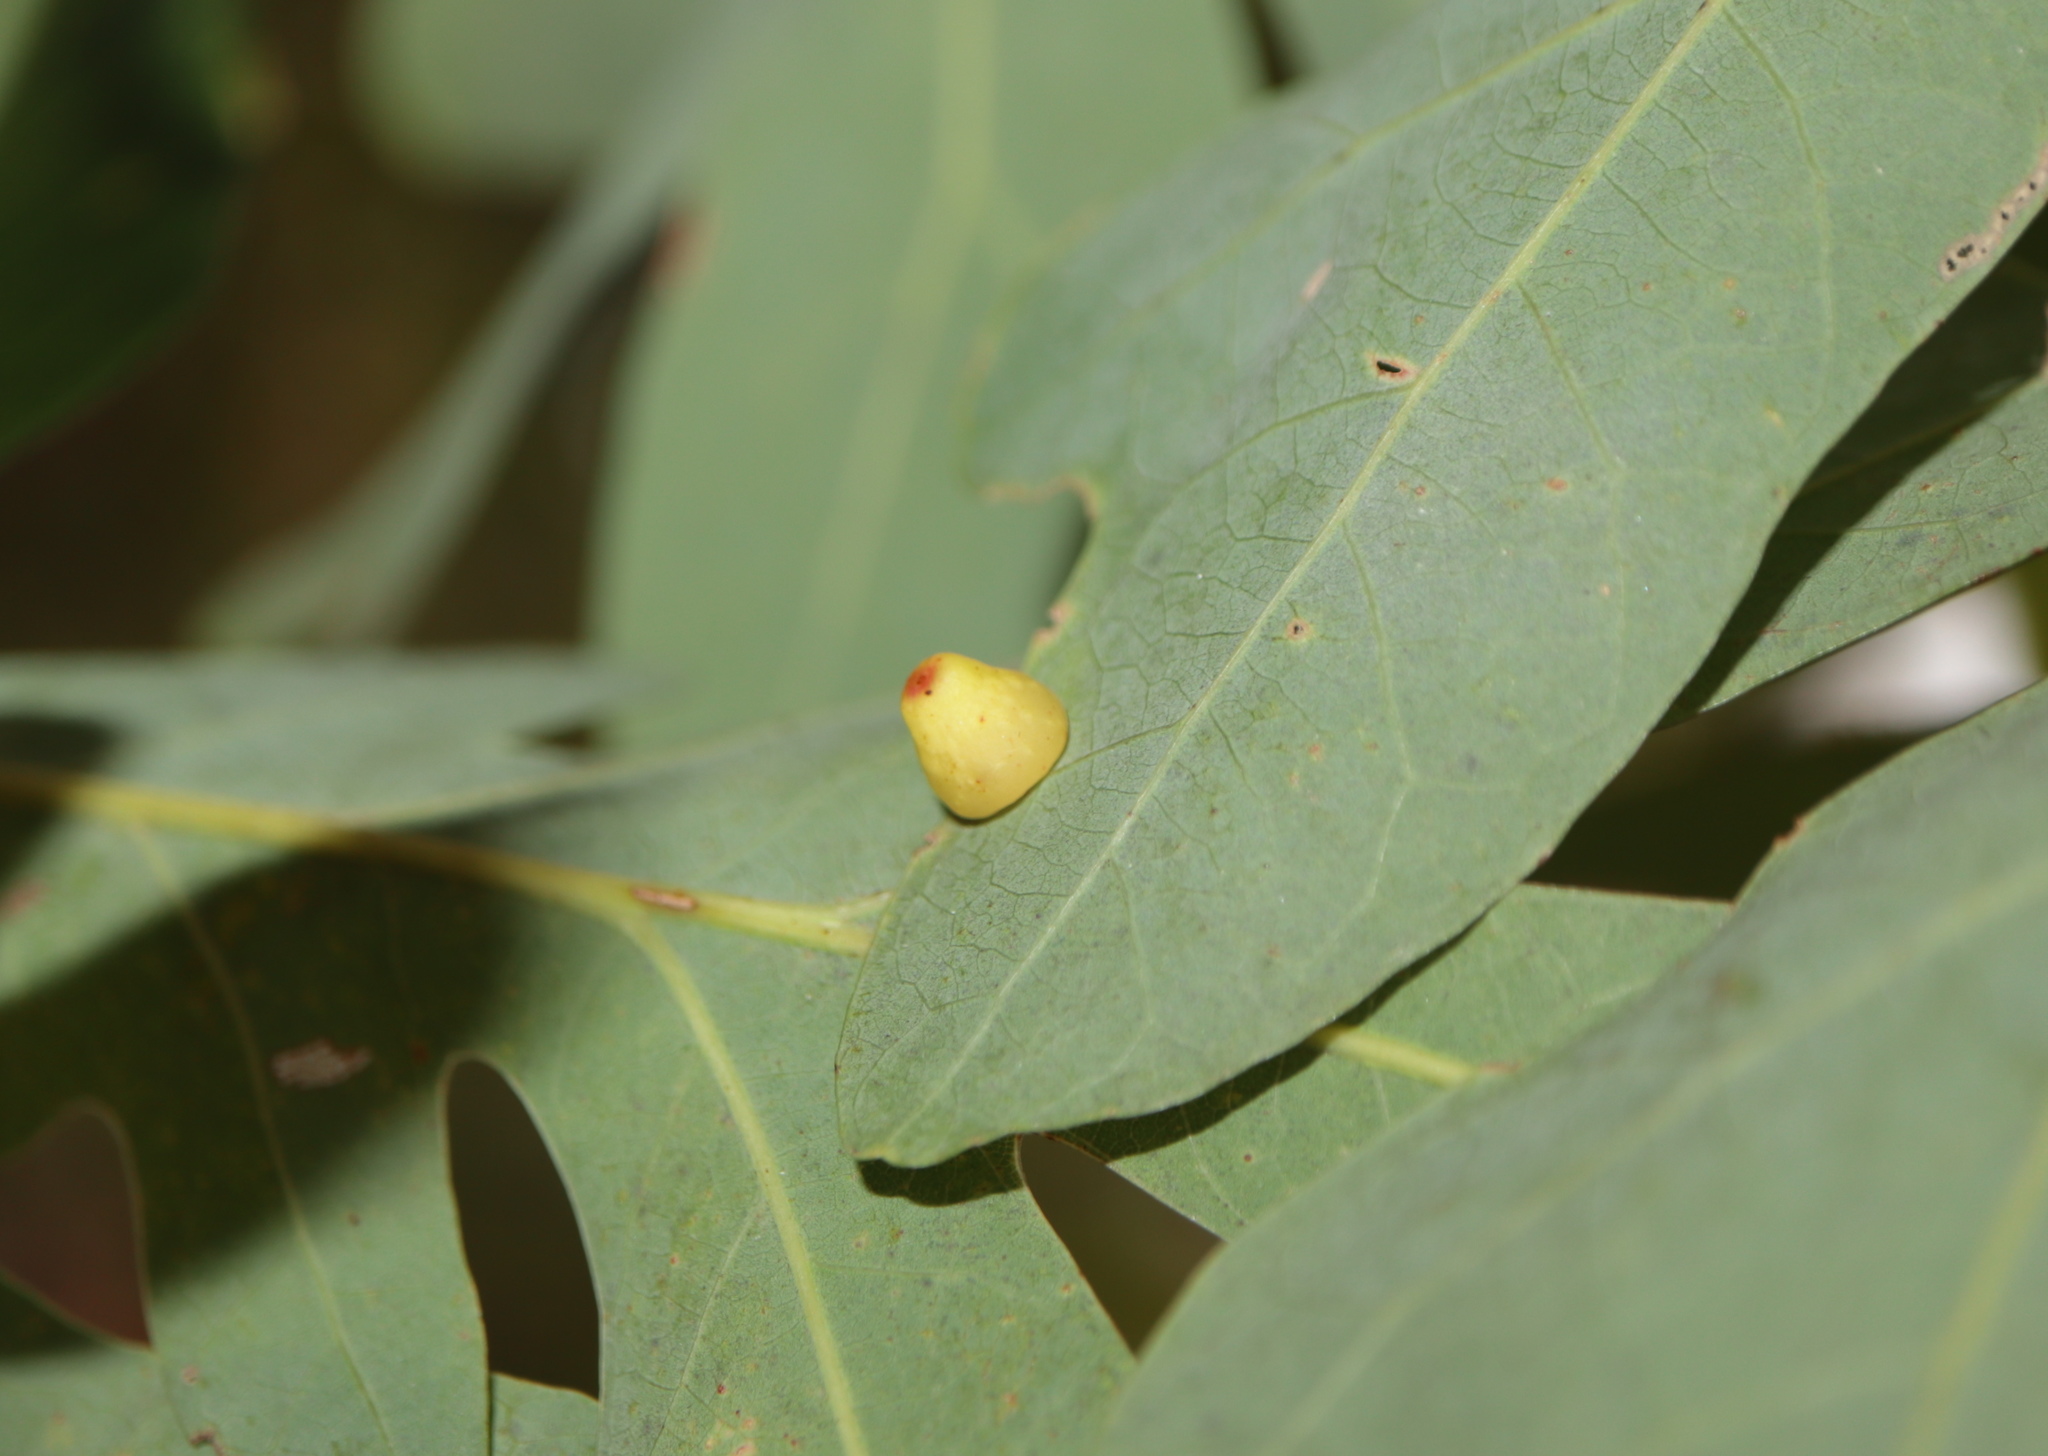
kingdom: Animalia
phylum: Arthropoda
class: Insecta
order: Hymenoptera
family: Cynipidae
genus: Andricus
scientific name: Andricus
